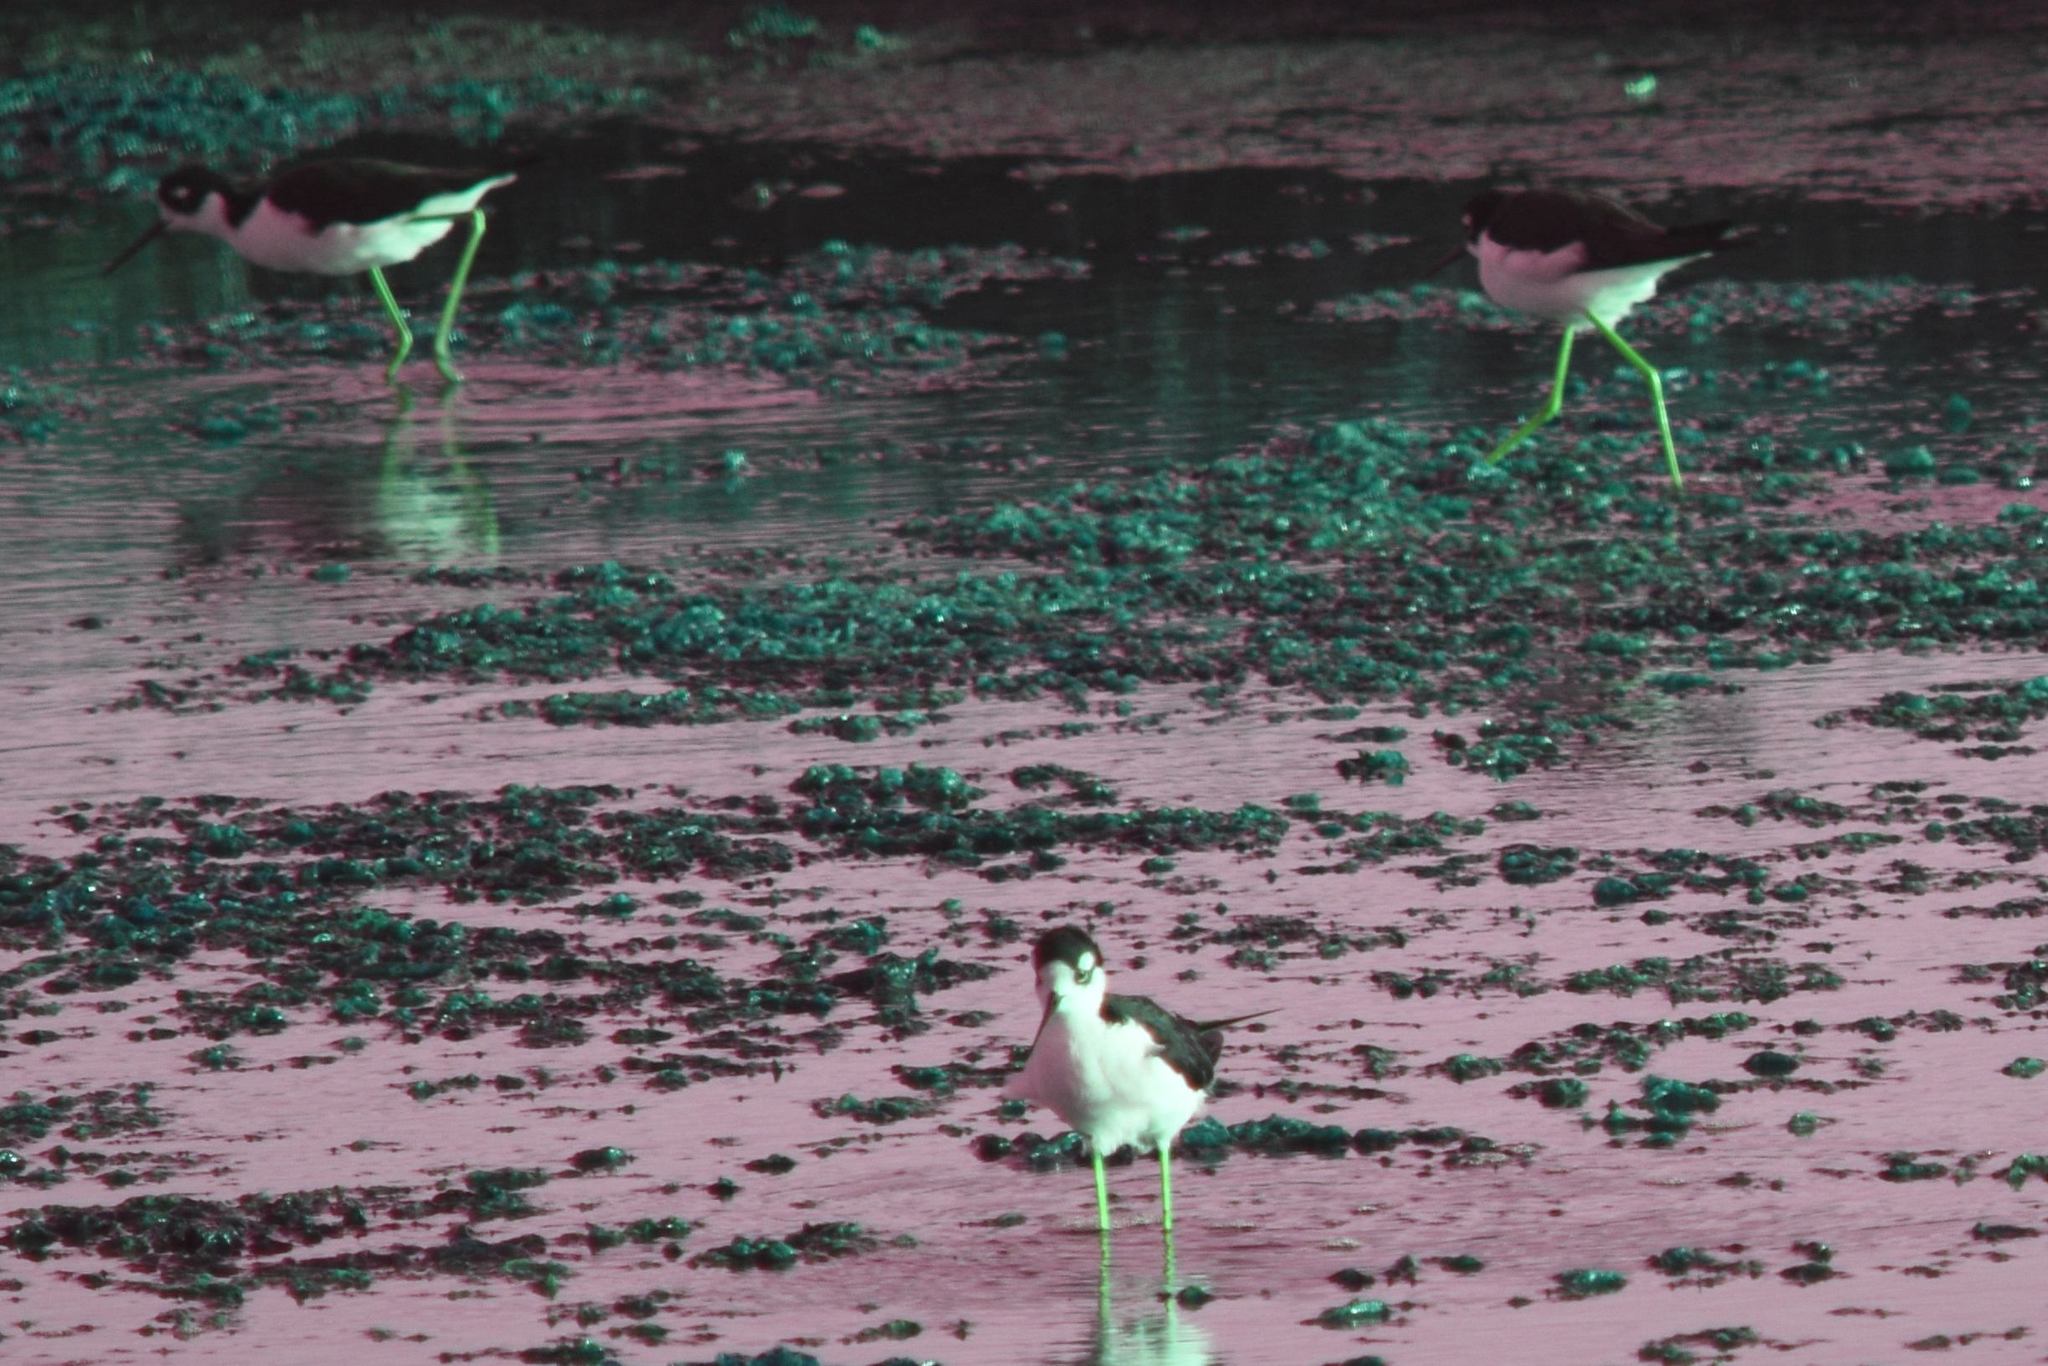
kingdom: Animalia
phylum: Chordata
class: Aves
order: Charadriiformes
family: Recurvirostridae
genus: Himantopus
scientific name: Himantopus mexicanus
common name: Black-necked stilt
